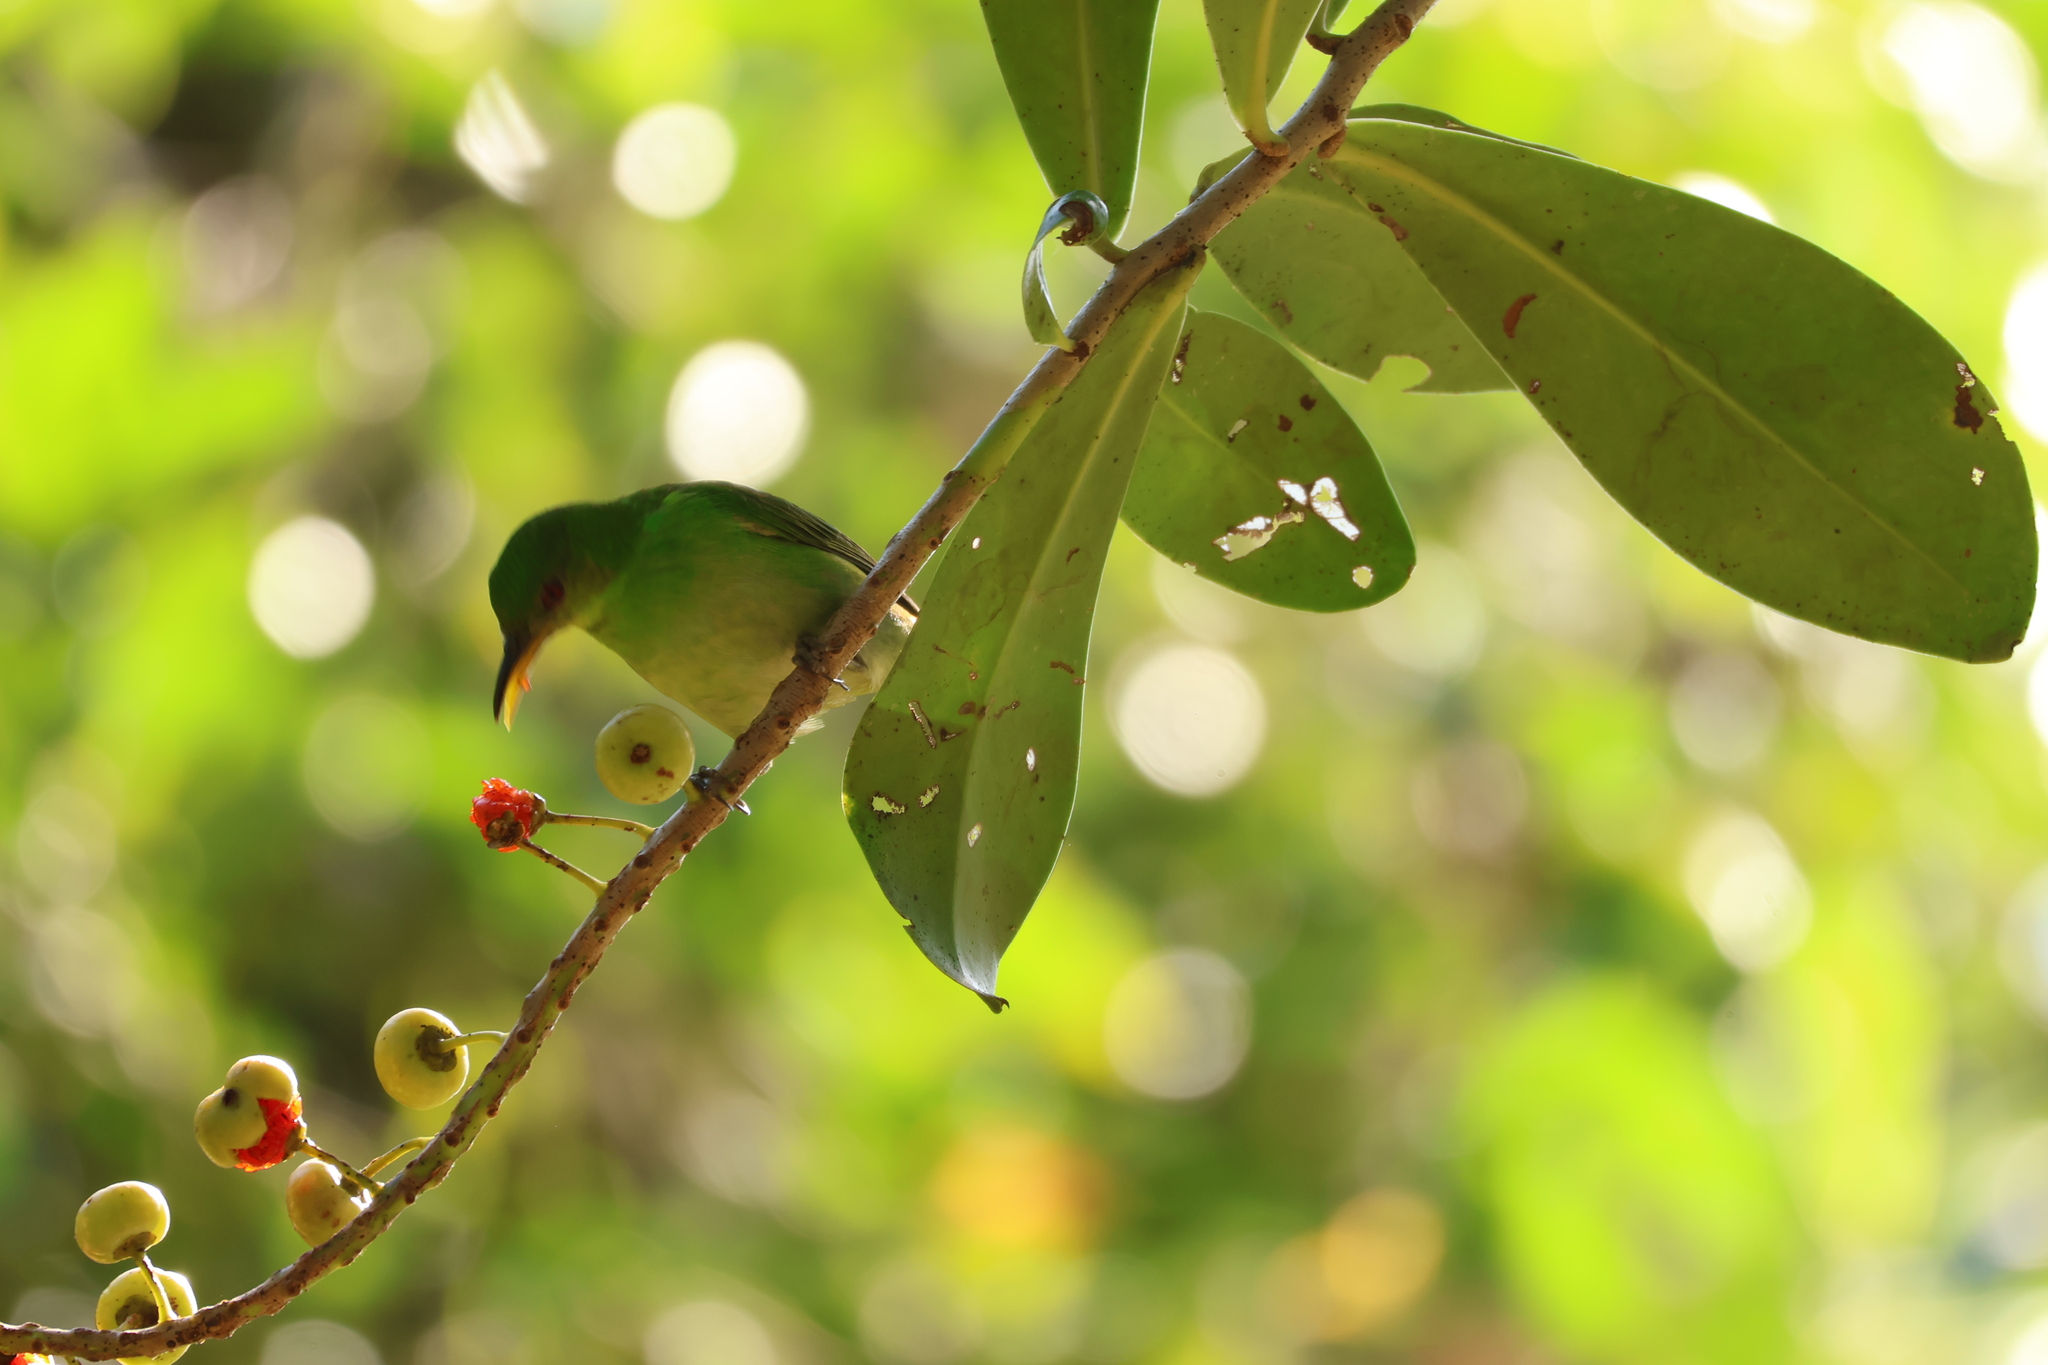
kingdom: Animalia
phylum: Chordata
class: Aves
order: Passeriformes
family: Thraupidae
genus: Chlorophanes
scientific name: Chlorophanes spiza
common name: Green honeycreeper
